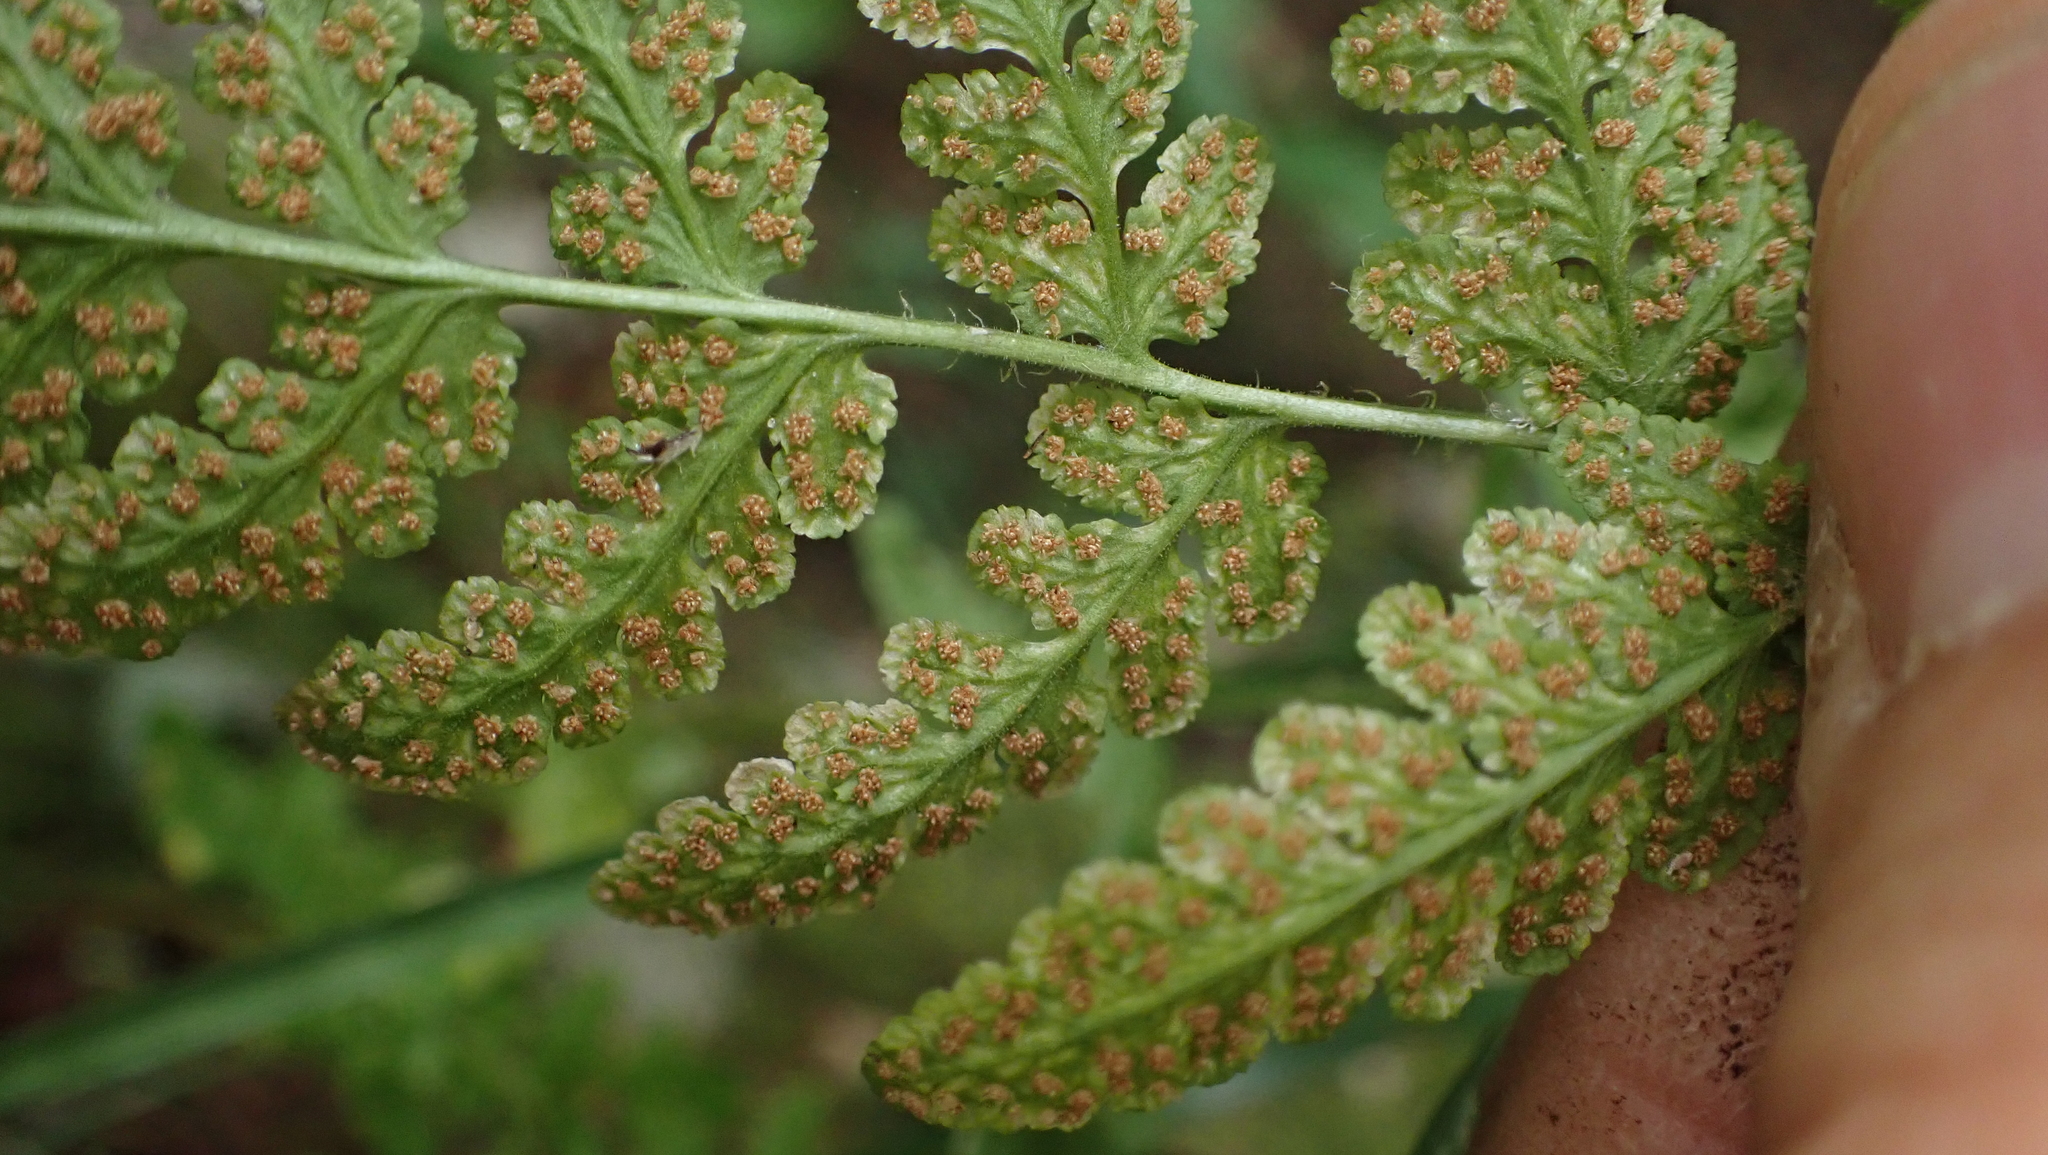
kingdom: Plantae
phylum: Tracheophyta
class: Polypodiopsida
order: Polypodiales
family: Woodsiaceae
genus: Physematium
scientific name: Physematium obtusum
